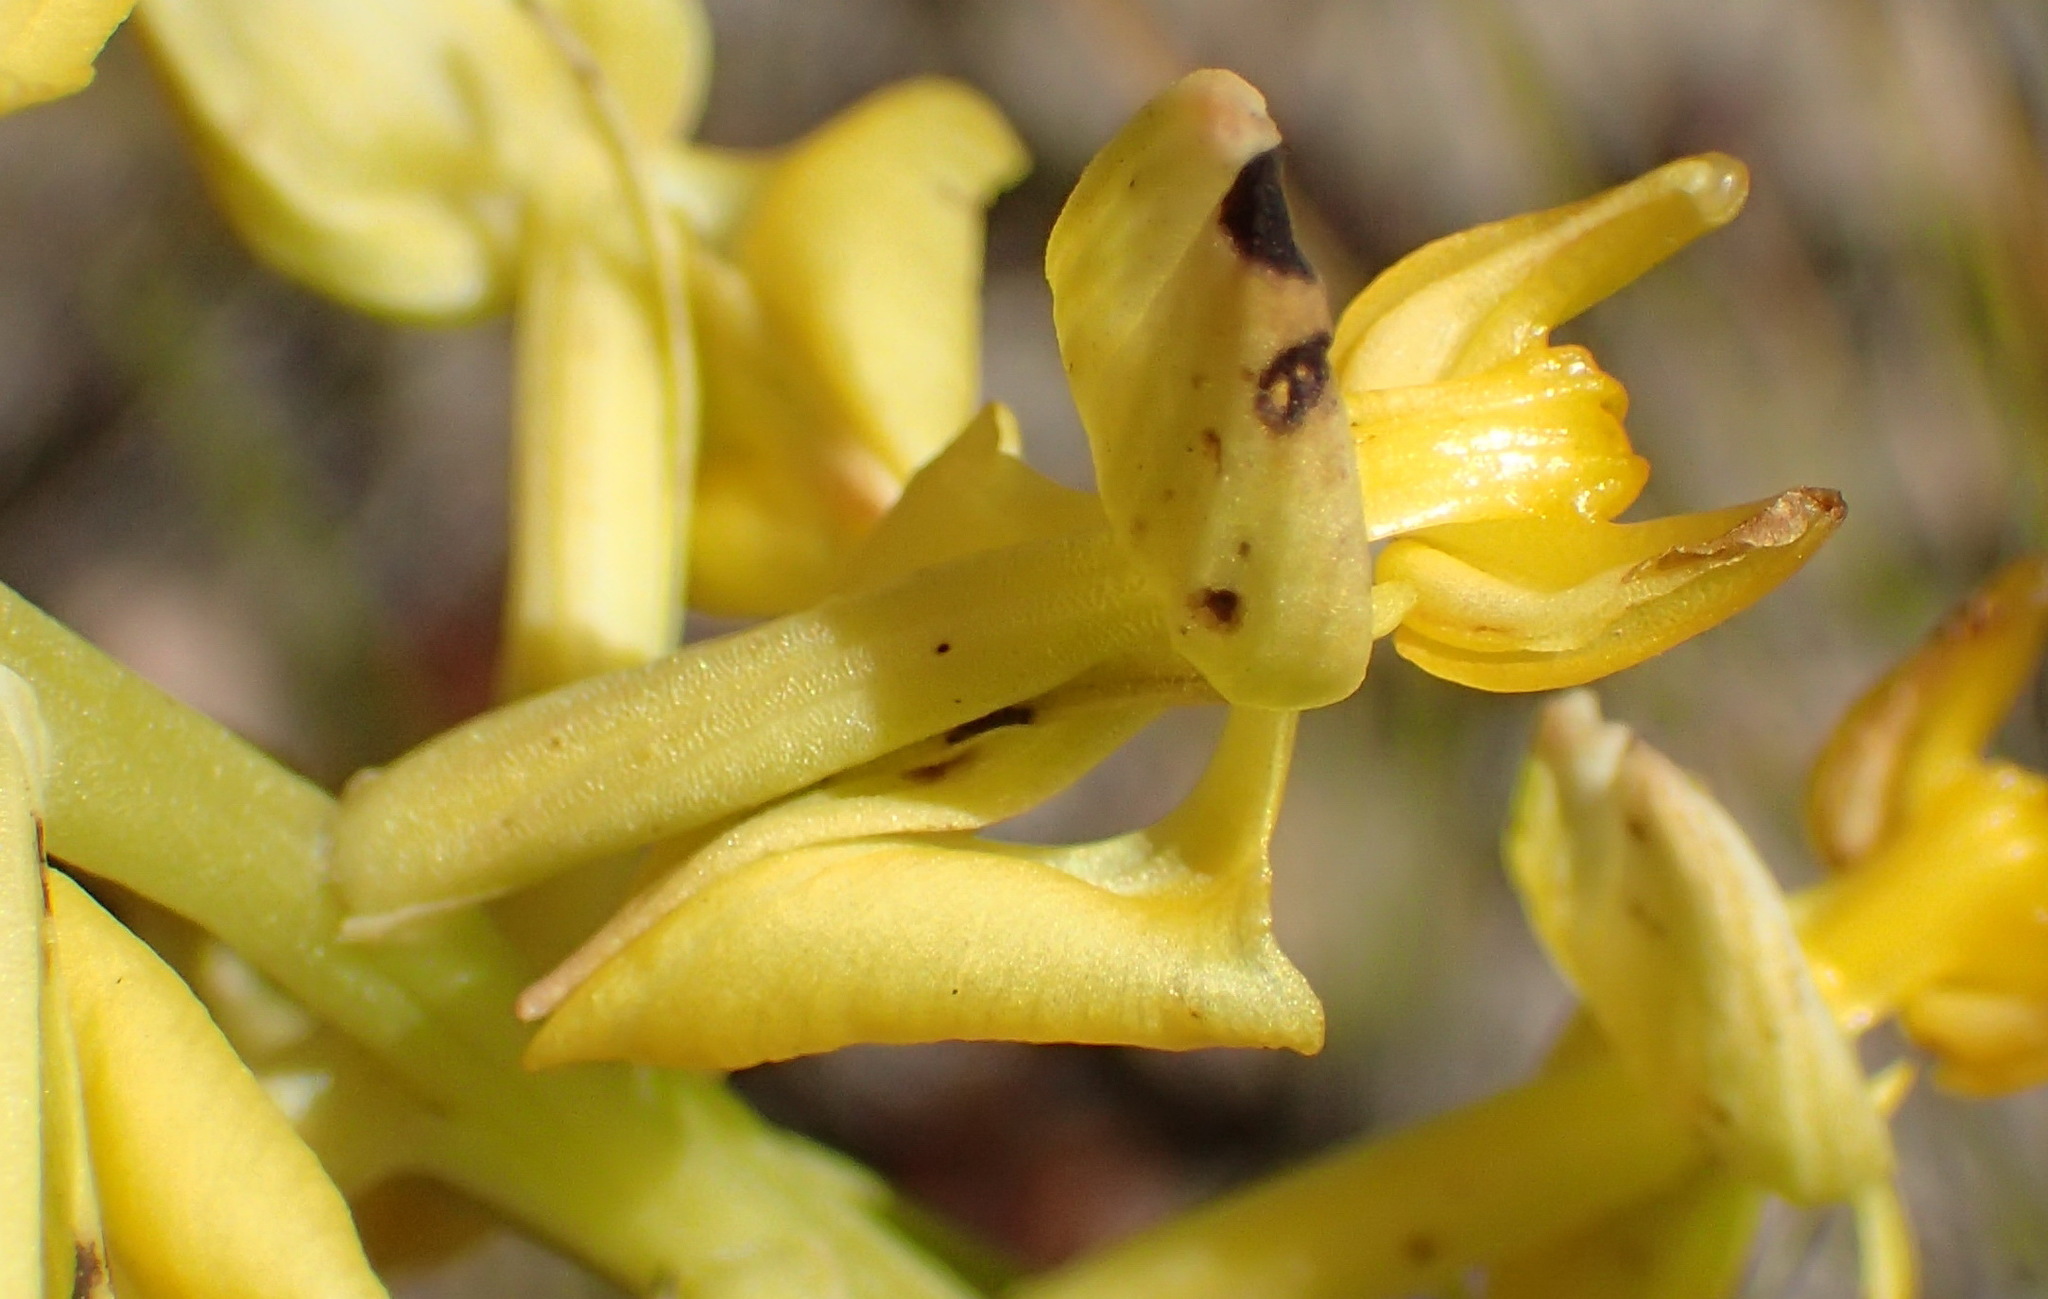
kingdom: Plantae
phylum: Tracheophyta
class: Liliopsida
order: Asparagales
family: Orchidaceae
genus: Ceratandra
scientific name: Ceratandra atrata
